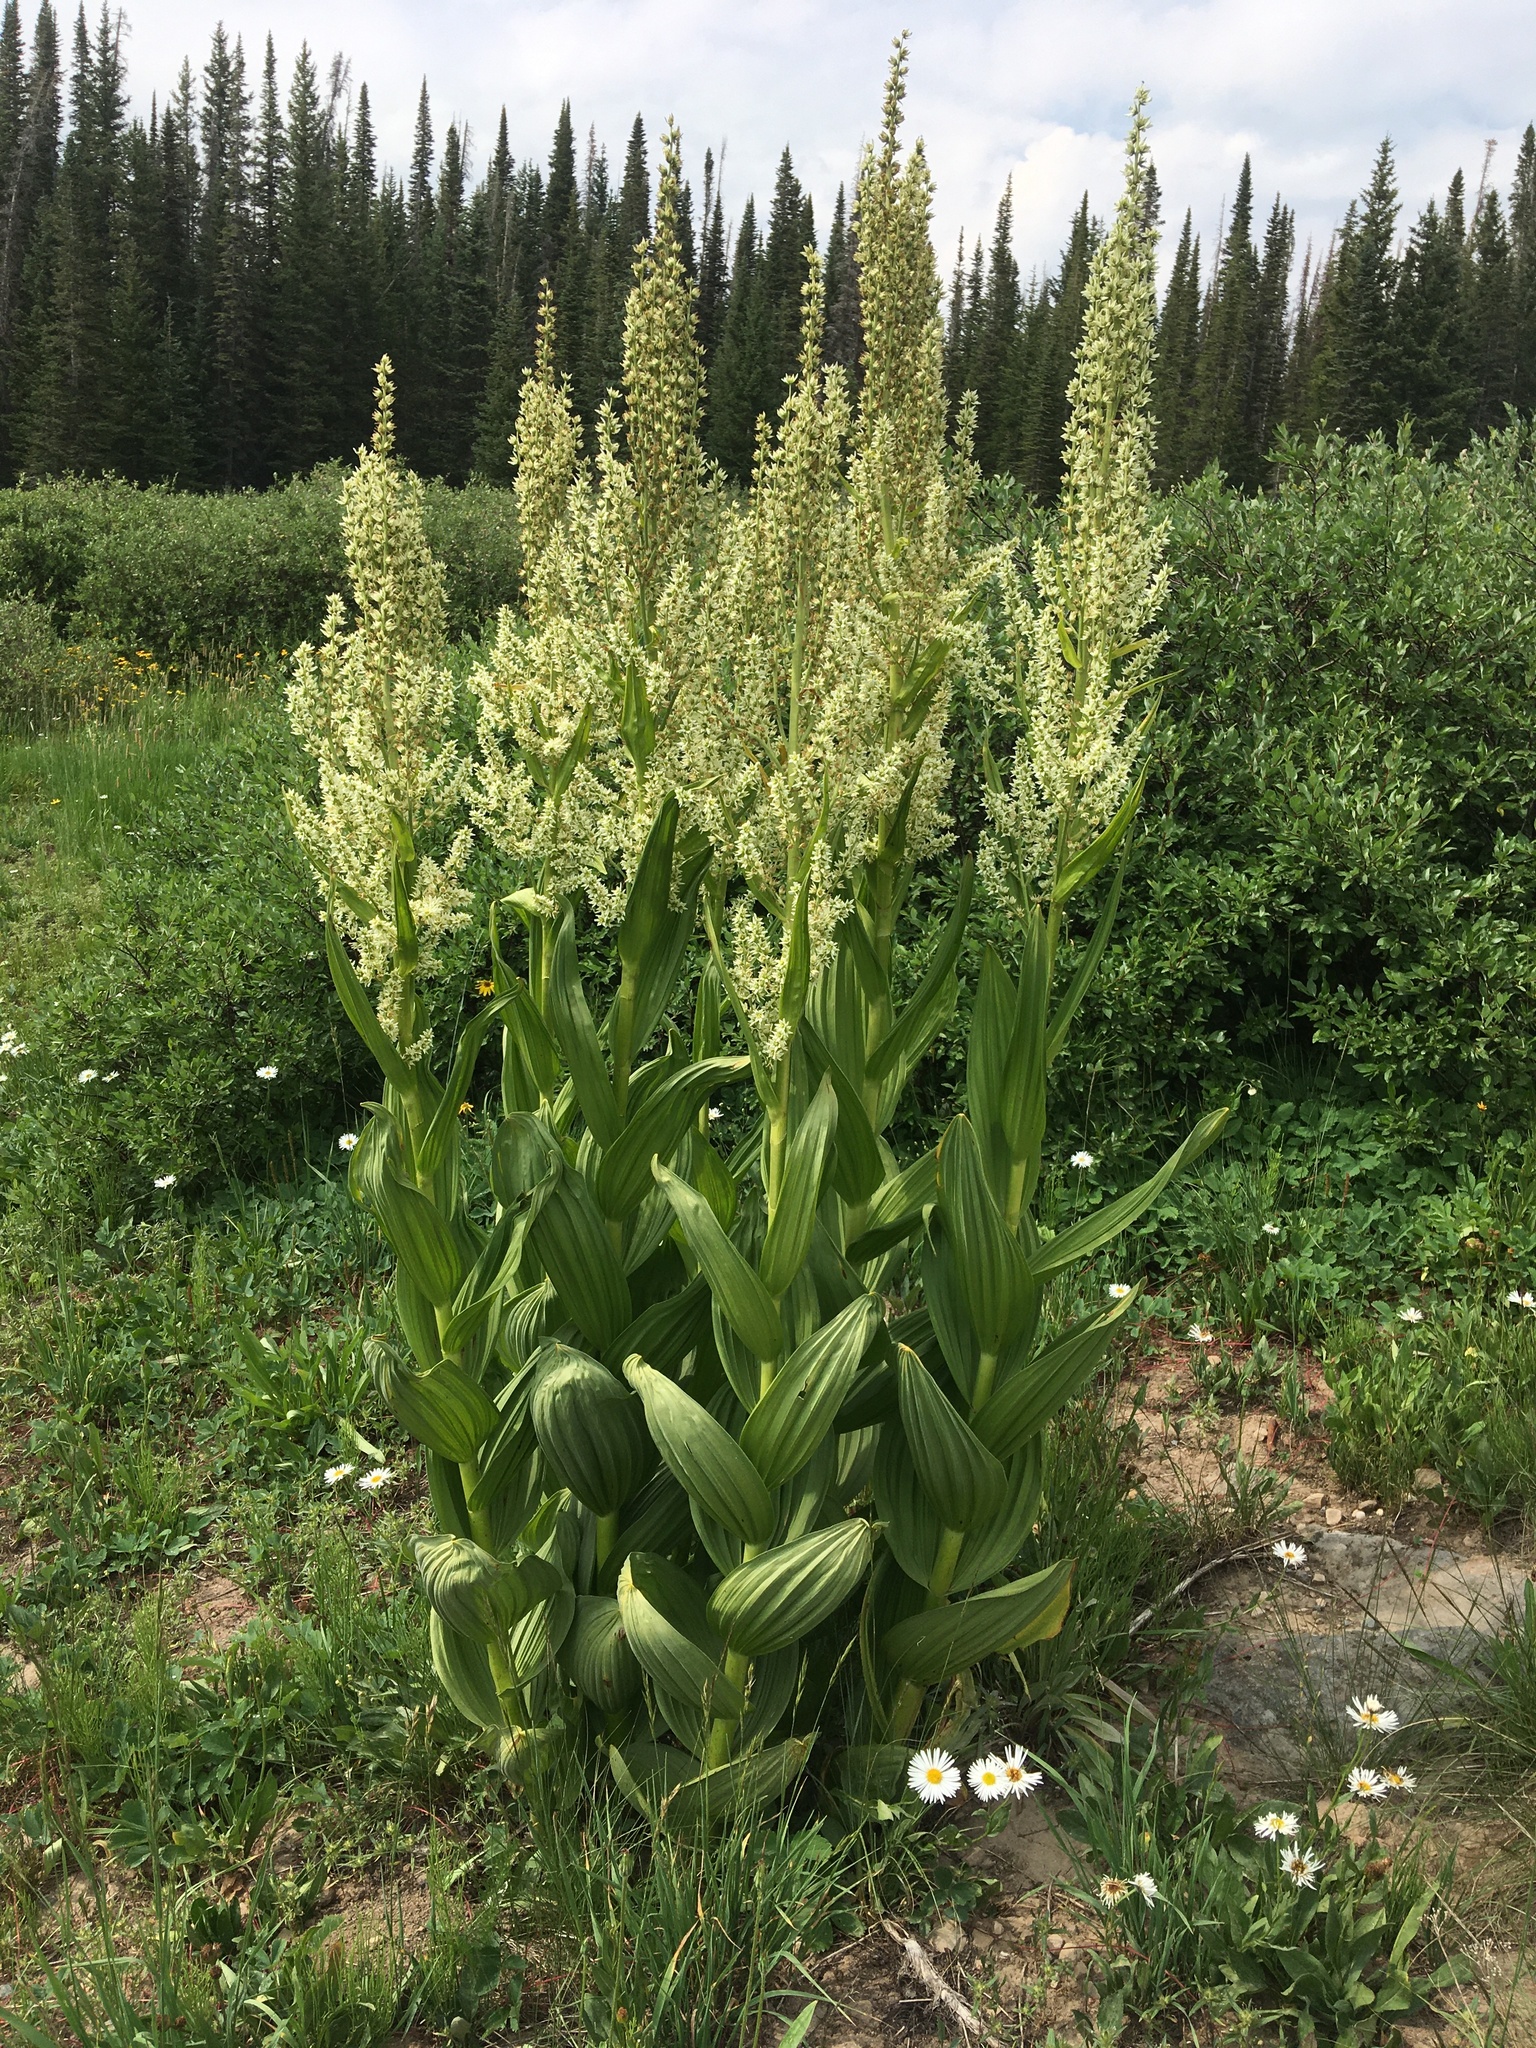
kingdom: Plantae
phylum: Tracheophyta
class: Liliopsida
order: Liliales
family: Melanthiaceae
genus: Veratrum
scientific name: Veratrum californicum
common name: California veratrum
